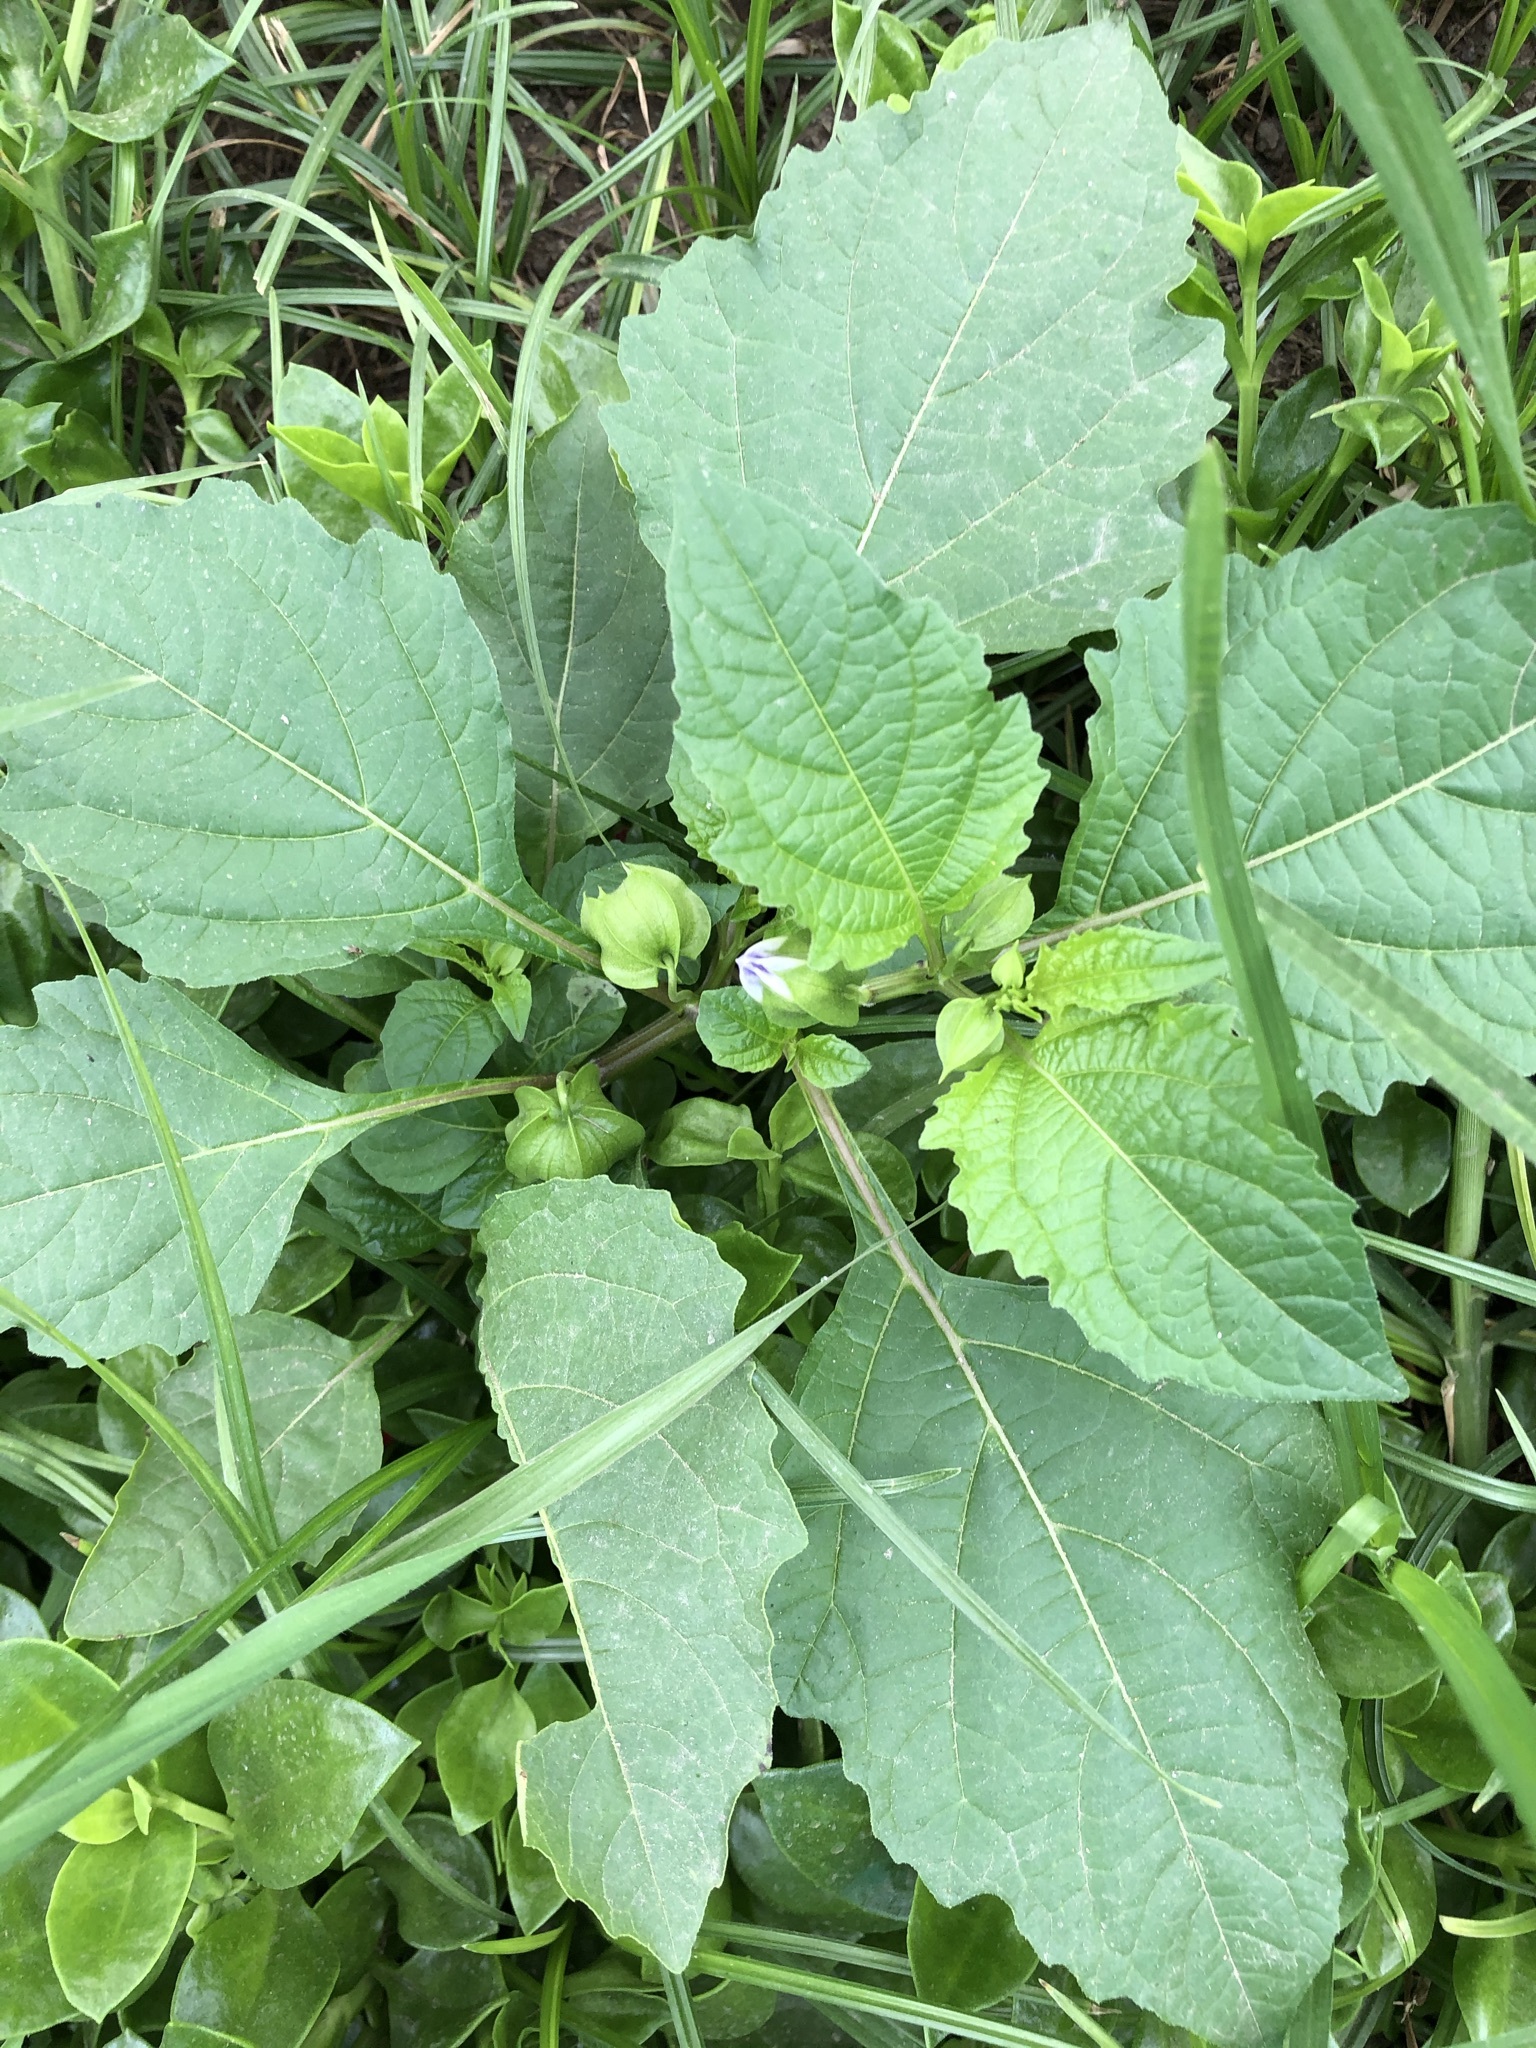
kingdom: Plantae
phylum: Tracheophyta
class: Magnoliopsida
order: Solanales
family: Solanaceae
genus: Nicandra
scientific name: Nicandra physalodes
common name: Apple-of-peru
